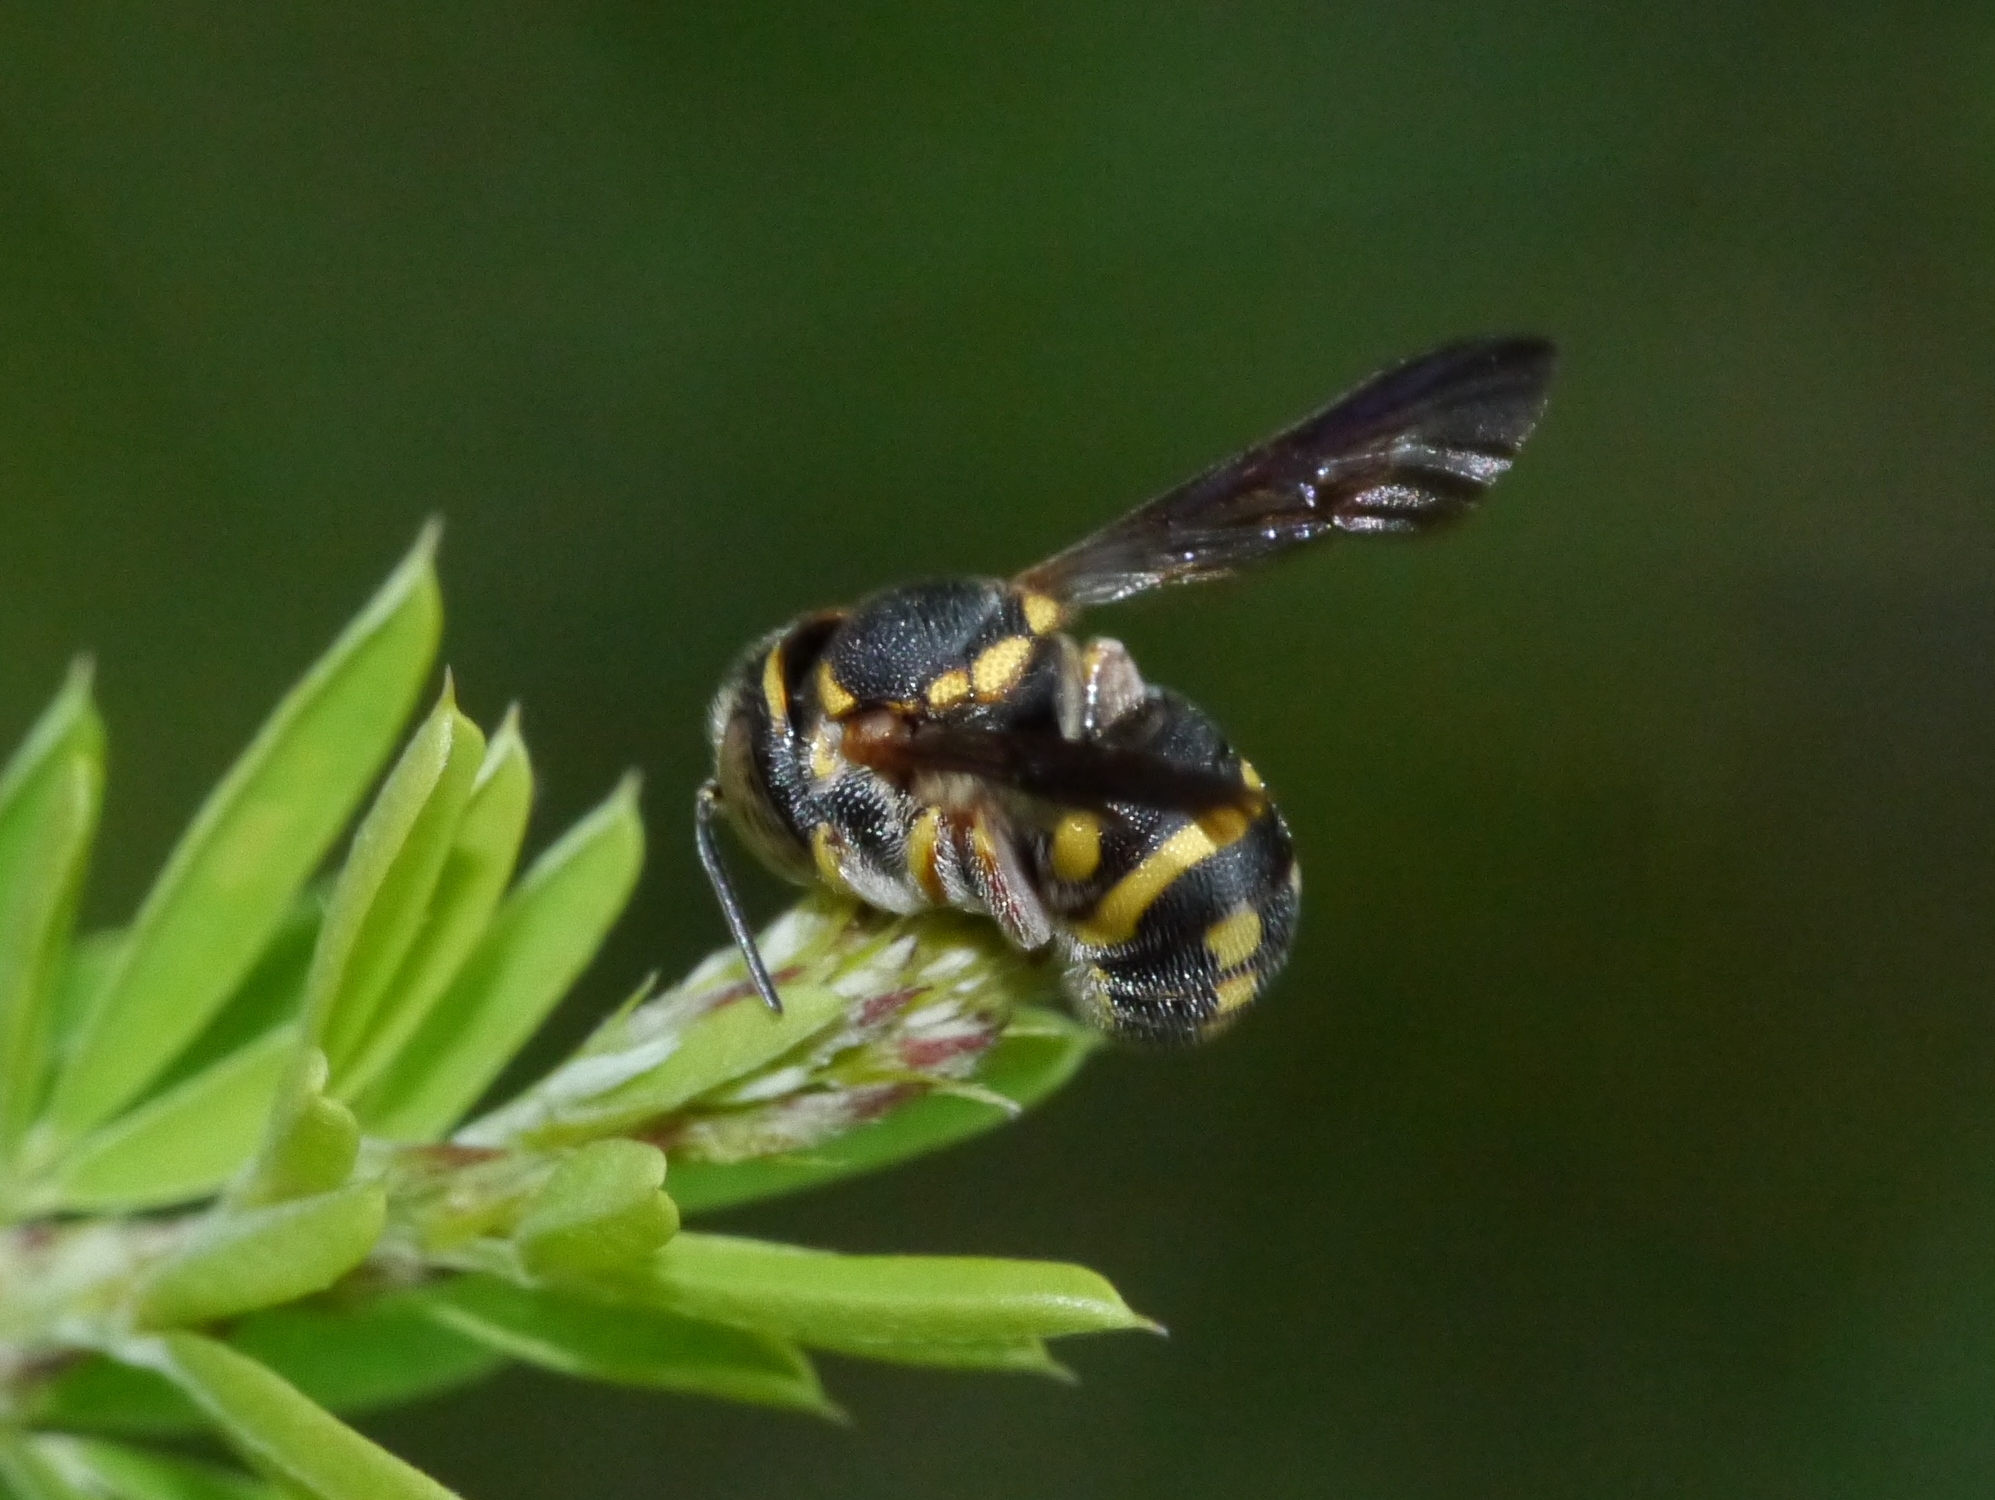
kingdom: Animalia
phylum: Arthropoda
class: Insecta
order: Hymenoptera
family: Megachilidae
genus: Anthidiellum
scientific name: Anthidiellum notatum
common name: Northern rotund-resin bee
